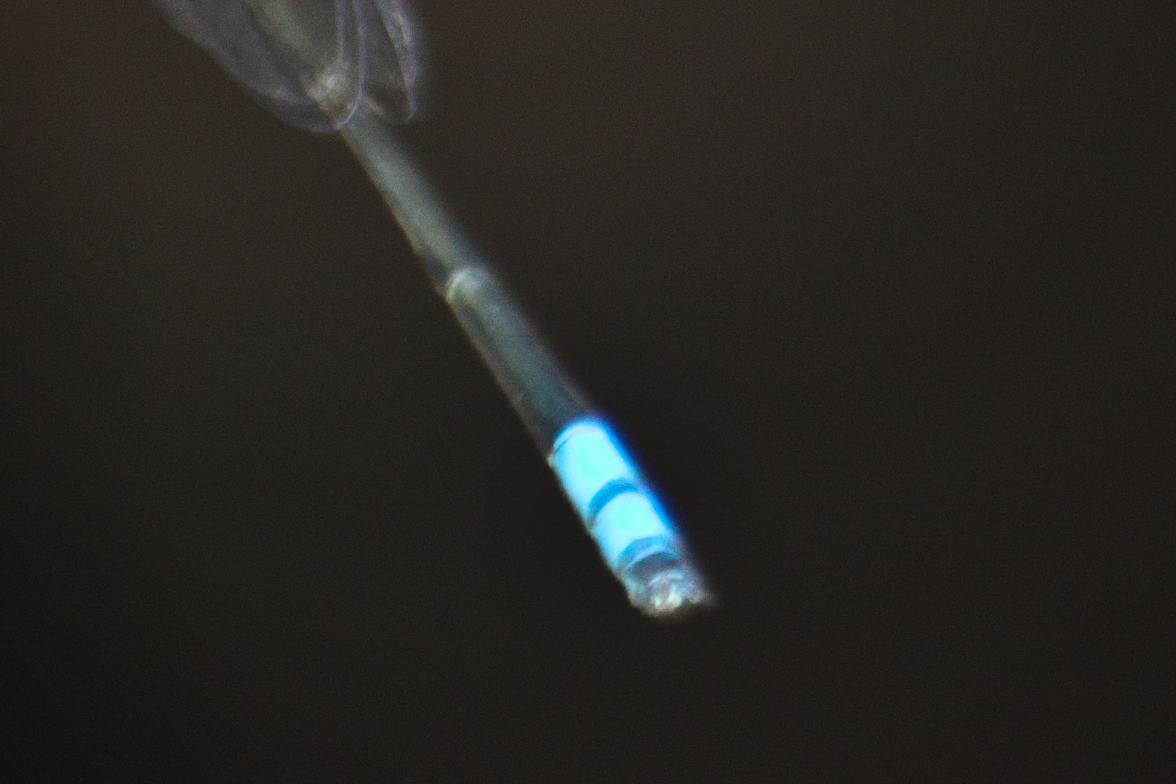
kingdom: Animalia
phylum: Arthropoda
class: Insecta
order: Odonata
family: Coenagrionidae
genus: Pseudagrion
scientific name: Pseudagrion williamsoni
